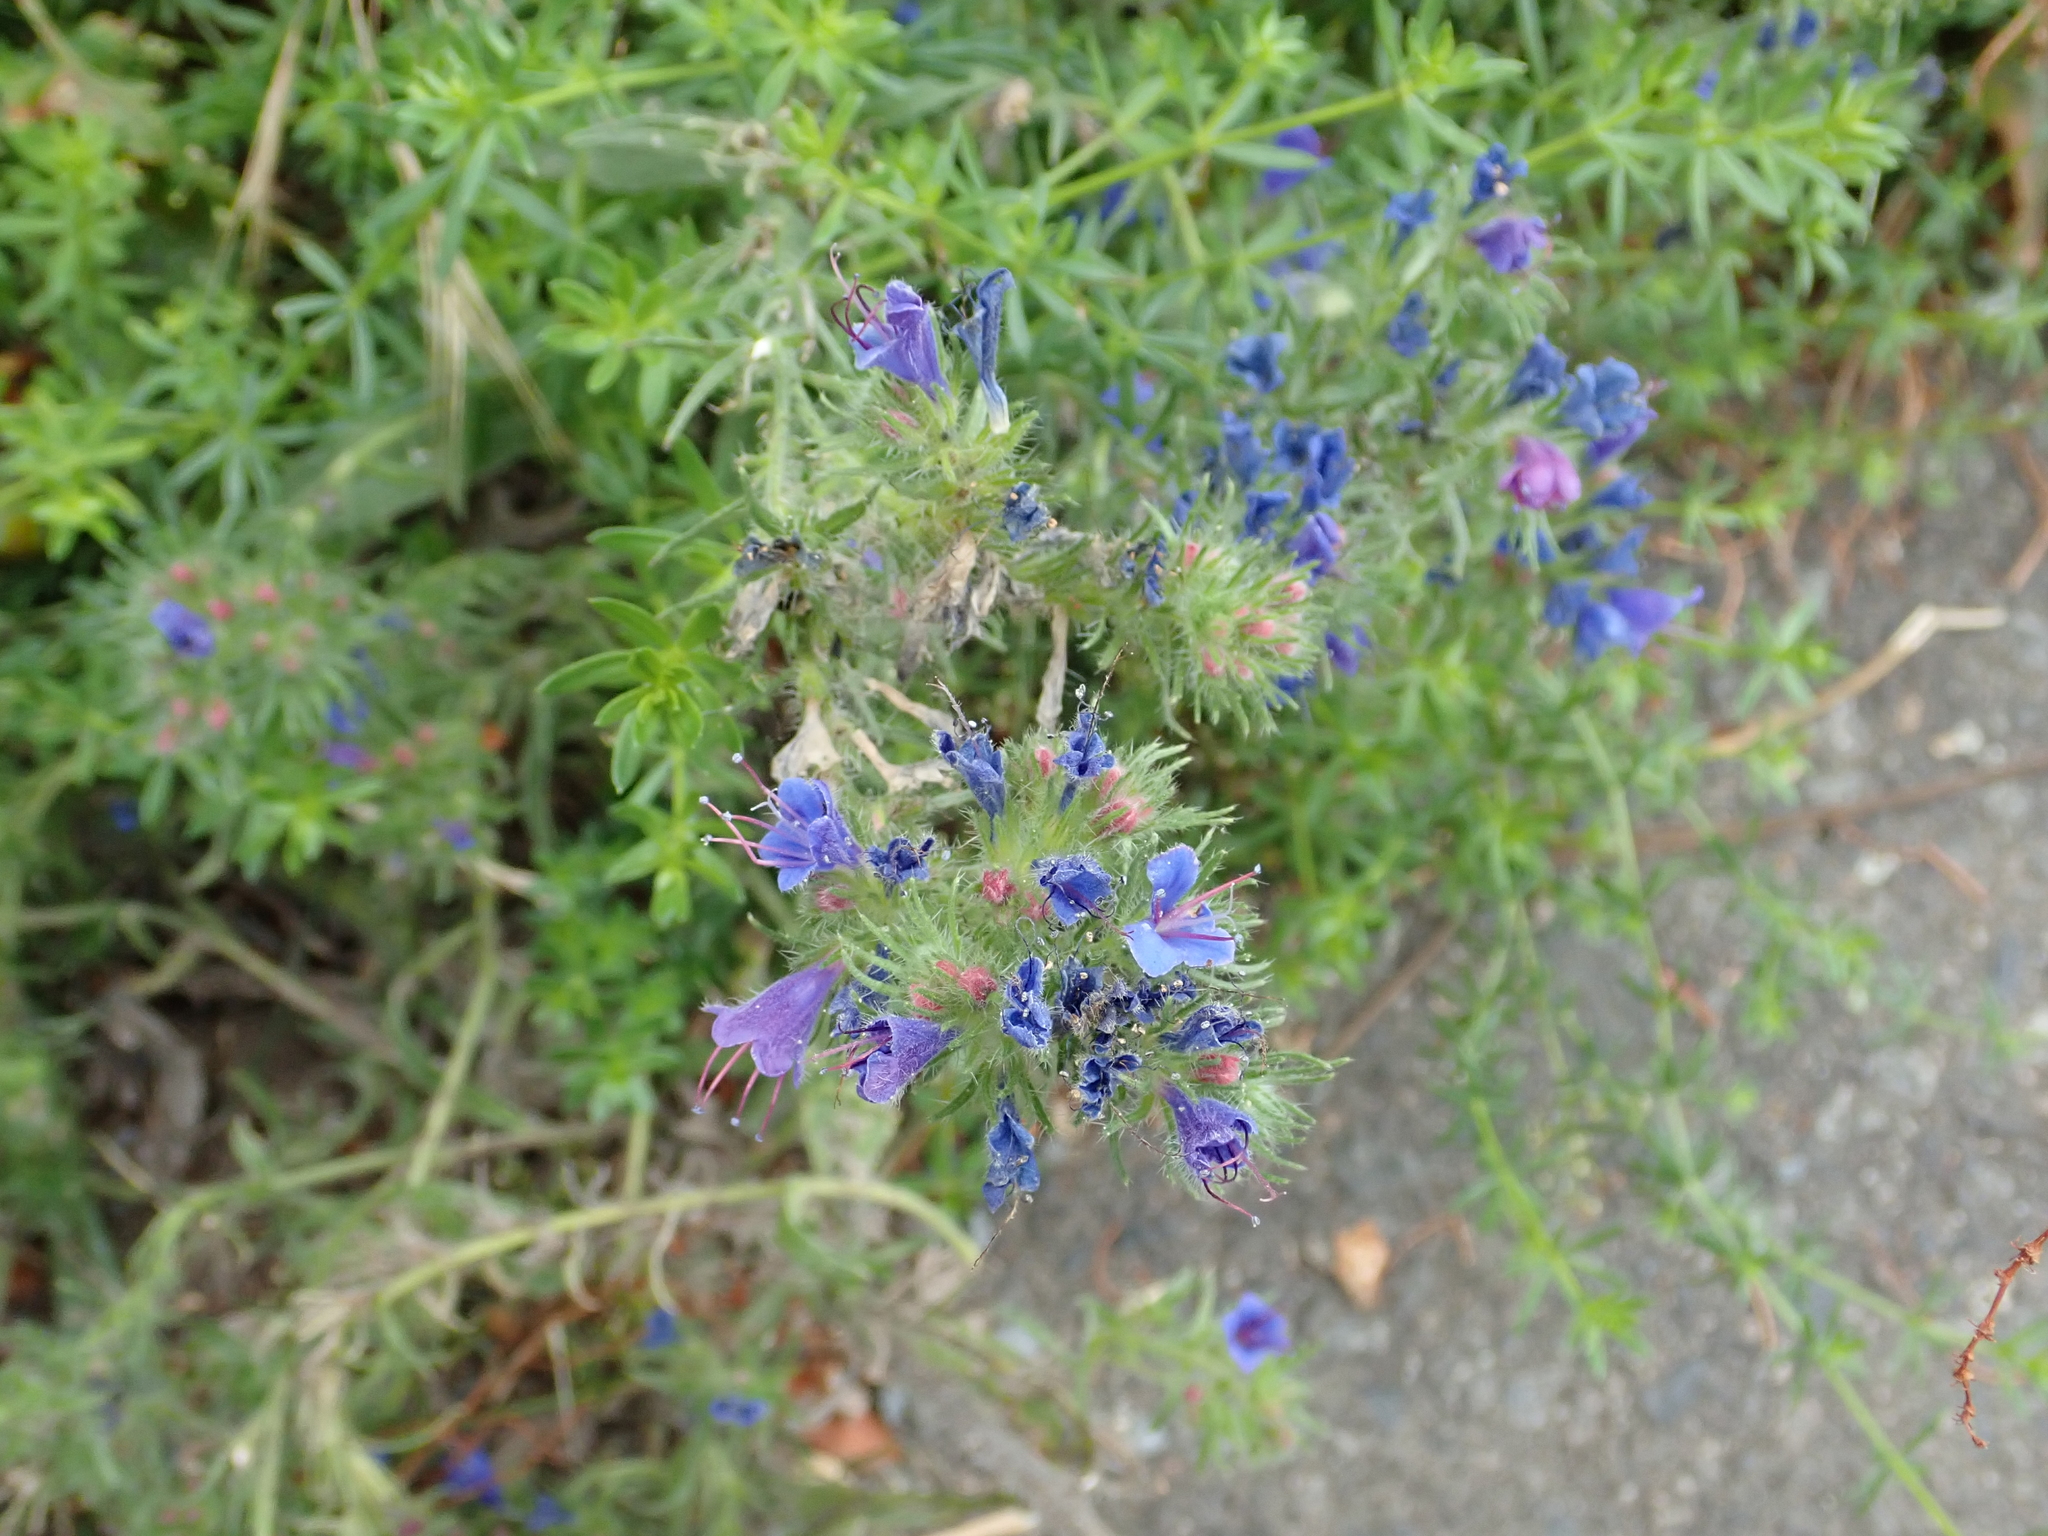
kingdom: Plantae
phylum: Tracheophyta
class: Magnoliopsida
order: Boraginales
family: Boraginaceae
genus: Echium
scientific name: Echium vulgare
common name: Common viper's bugloss
